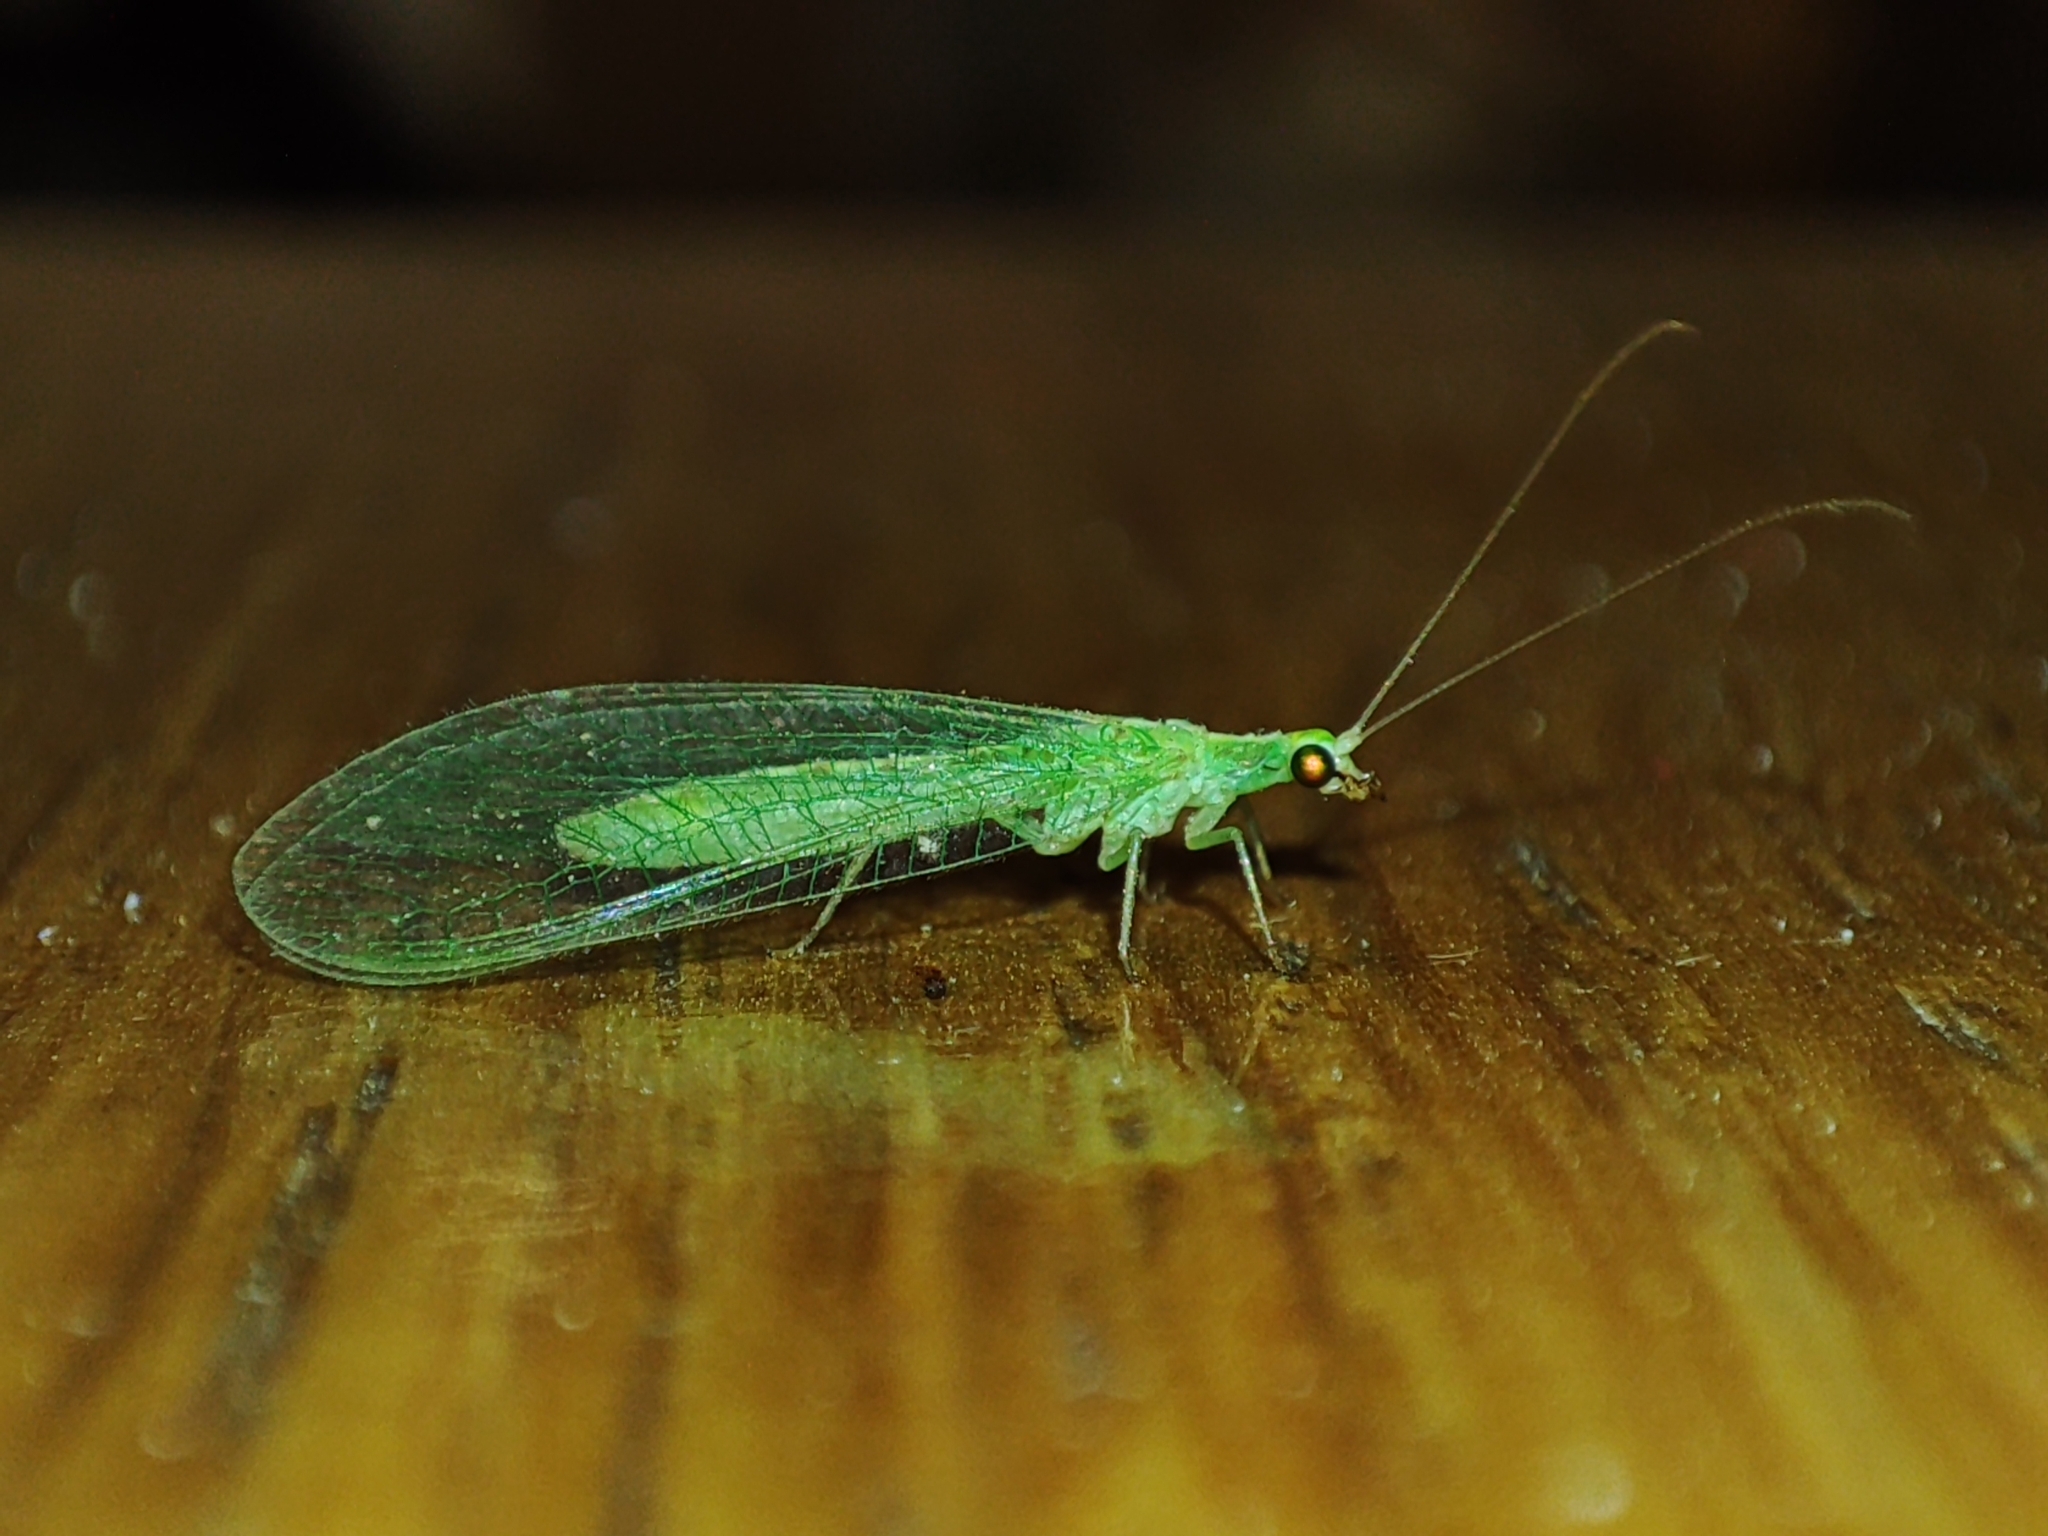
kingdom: Animalia
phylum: Arthropoda
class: Insecta
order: Neuroptera
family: Chrysopidae
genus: Chrysoperla
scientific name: Chrysoperla
